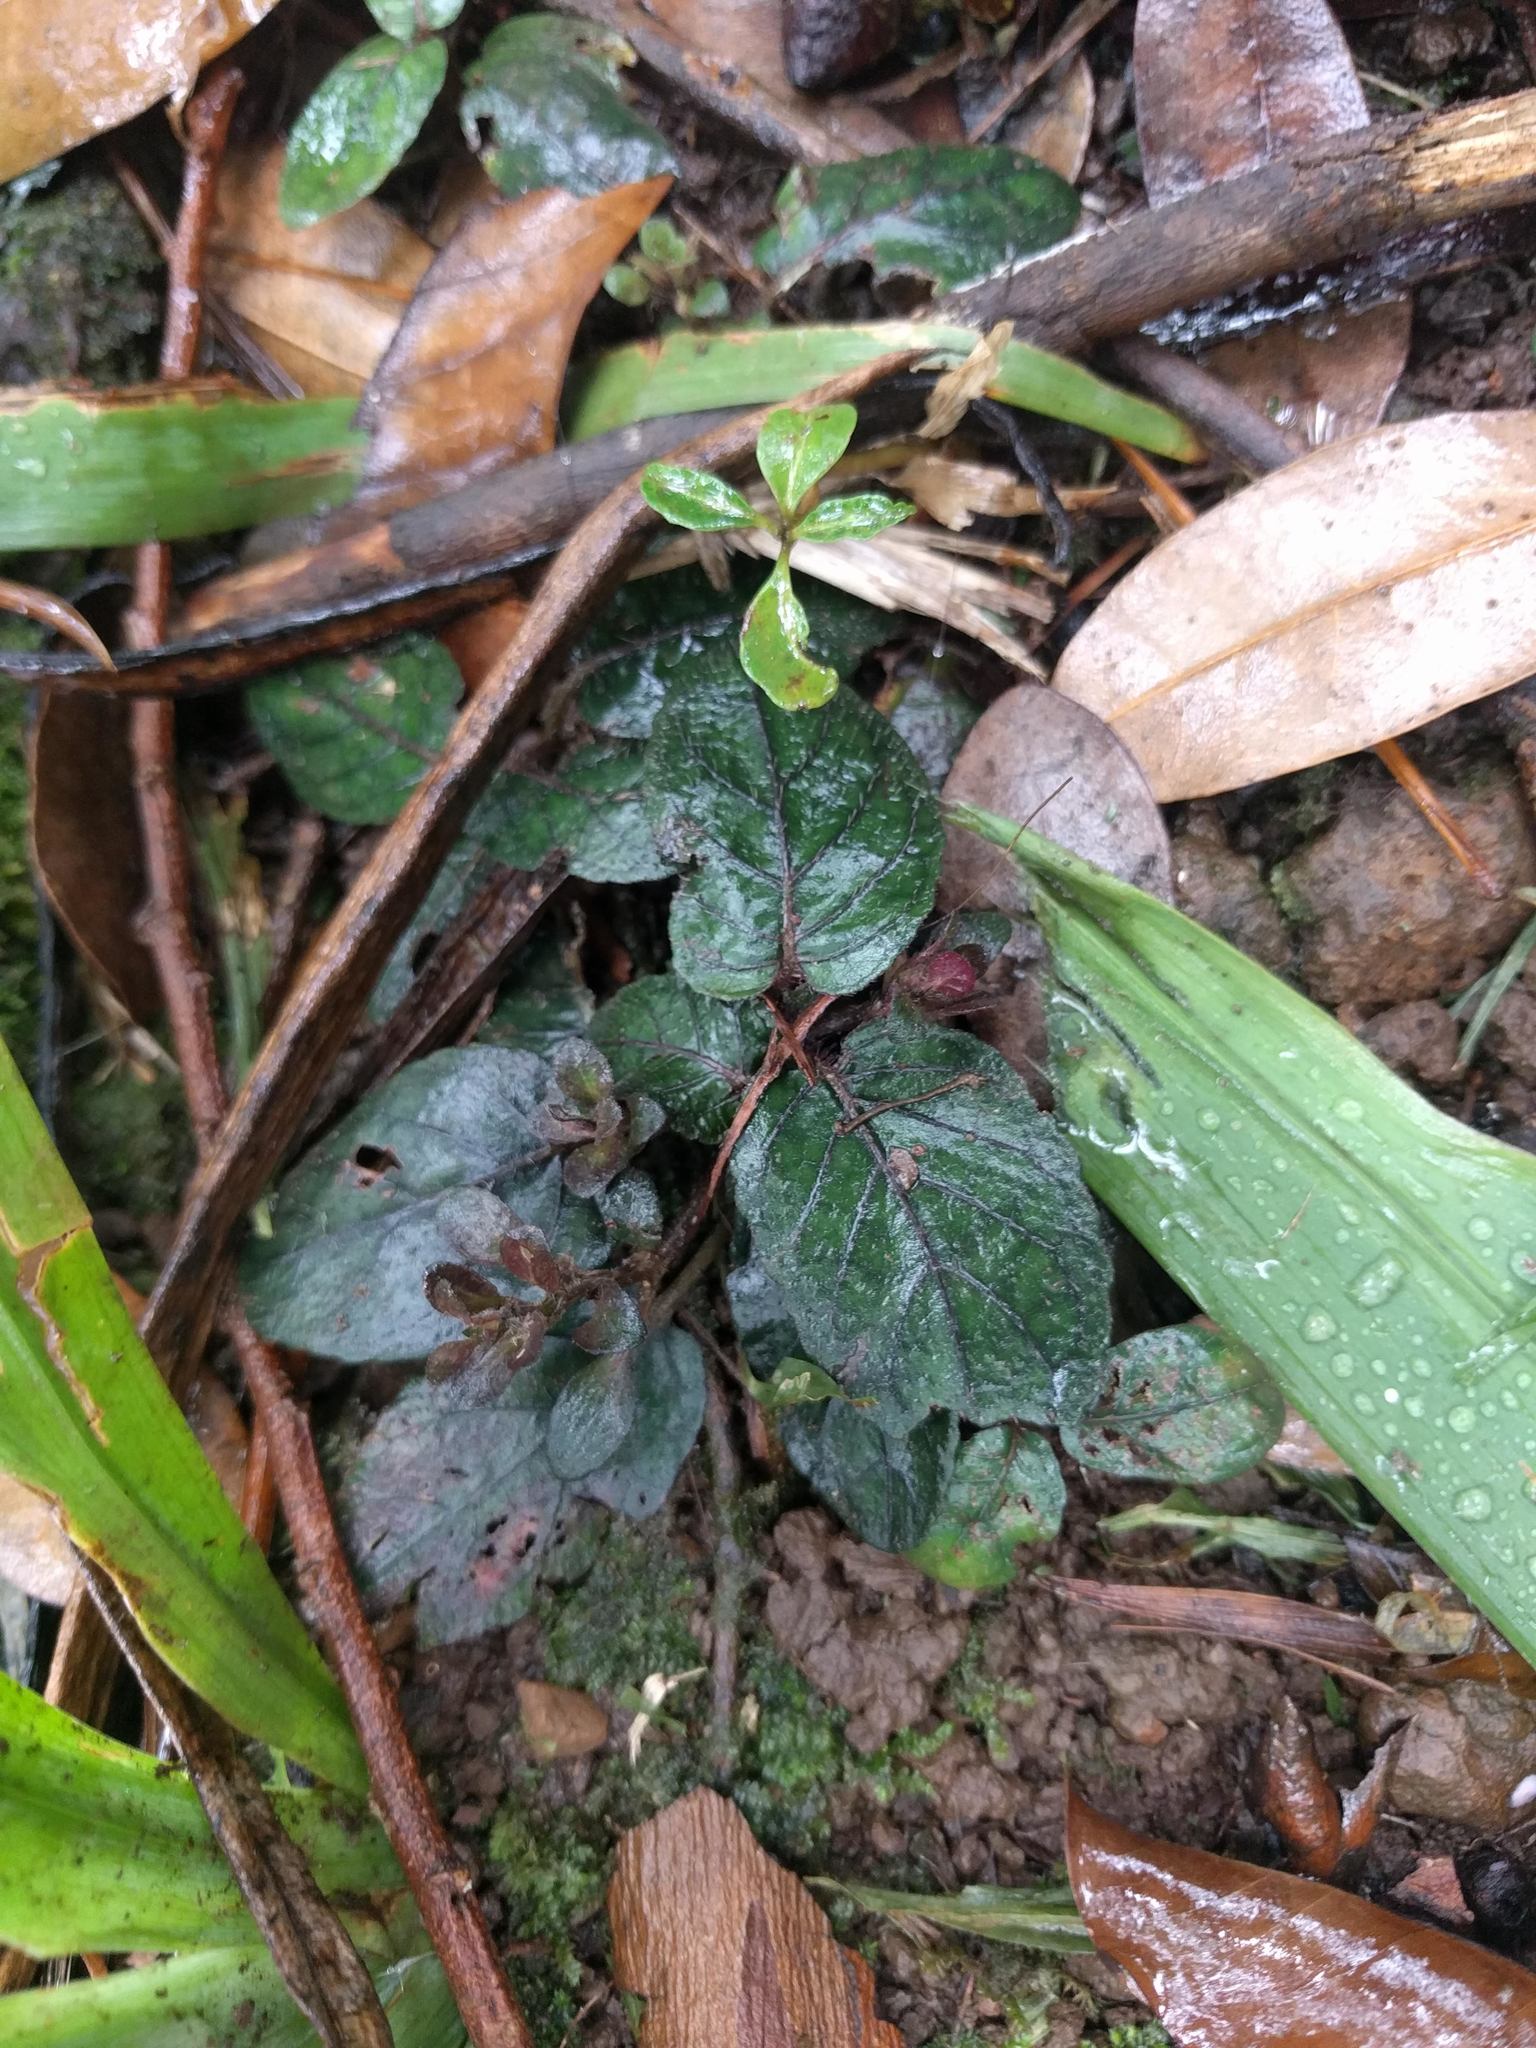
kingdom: Plantae
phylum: Tracheophyta
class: Magnoliopsida
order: Lamiales
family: Acanthaceae
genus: Strobilanthes
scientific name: Strobilanthes reptans
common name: Acanthaceae
